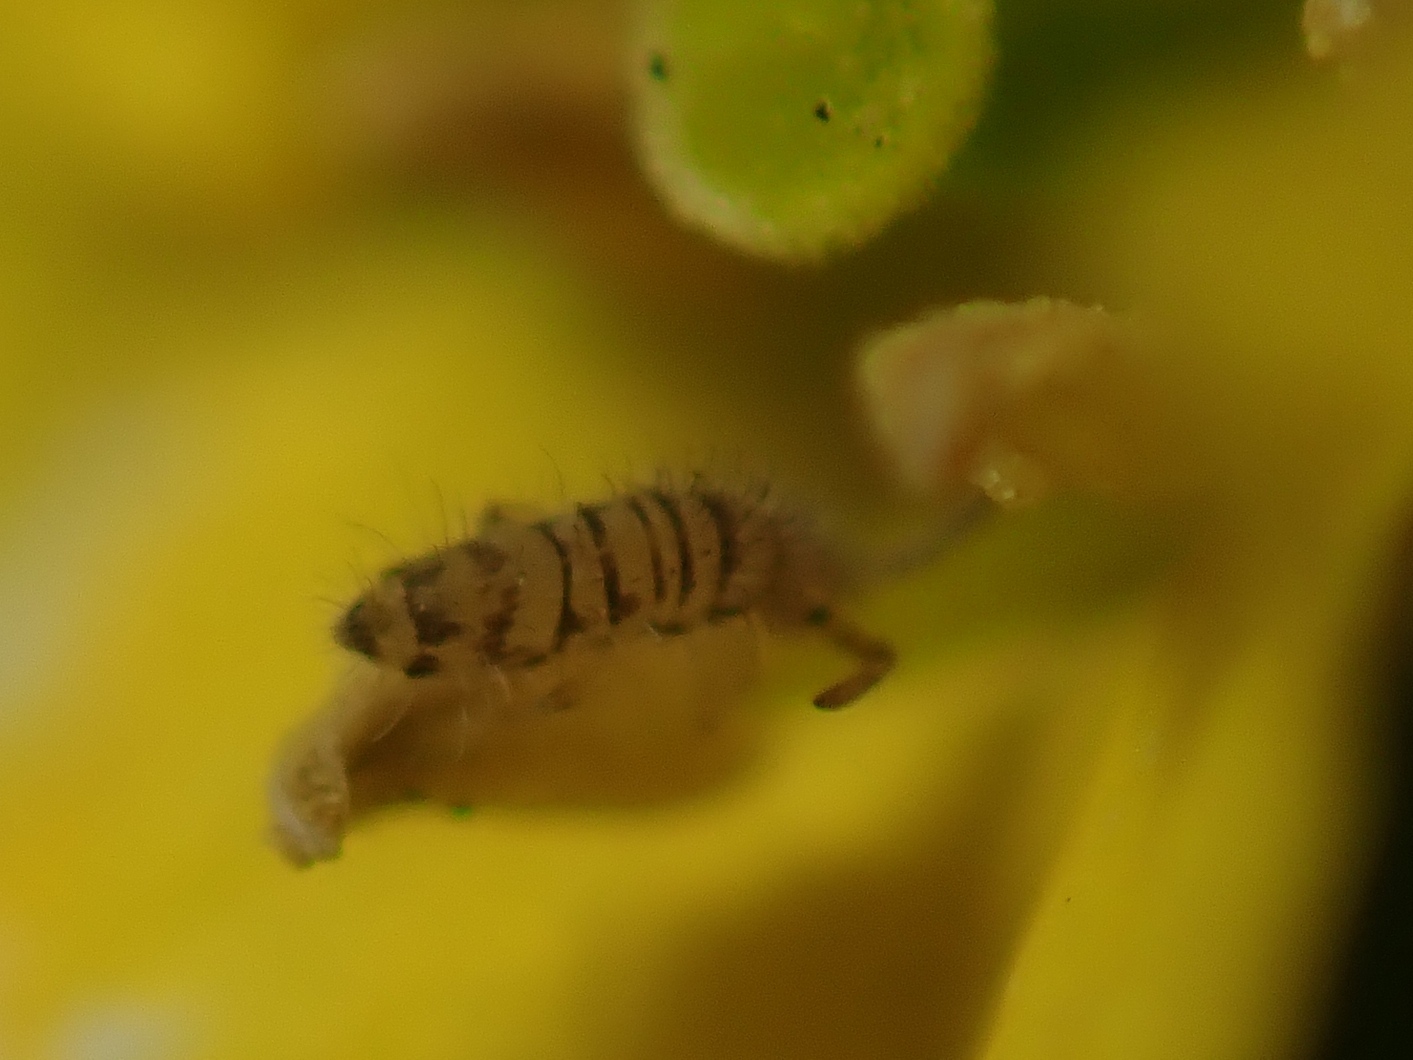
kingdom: Animalia
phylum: Arthropoda
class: Collembola
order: Entomobryomorpha
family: Entomobryidae
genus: Entomobrya
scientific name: Entomobrya multifasciata
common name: Springtail
